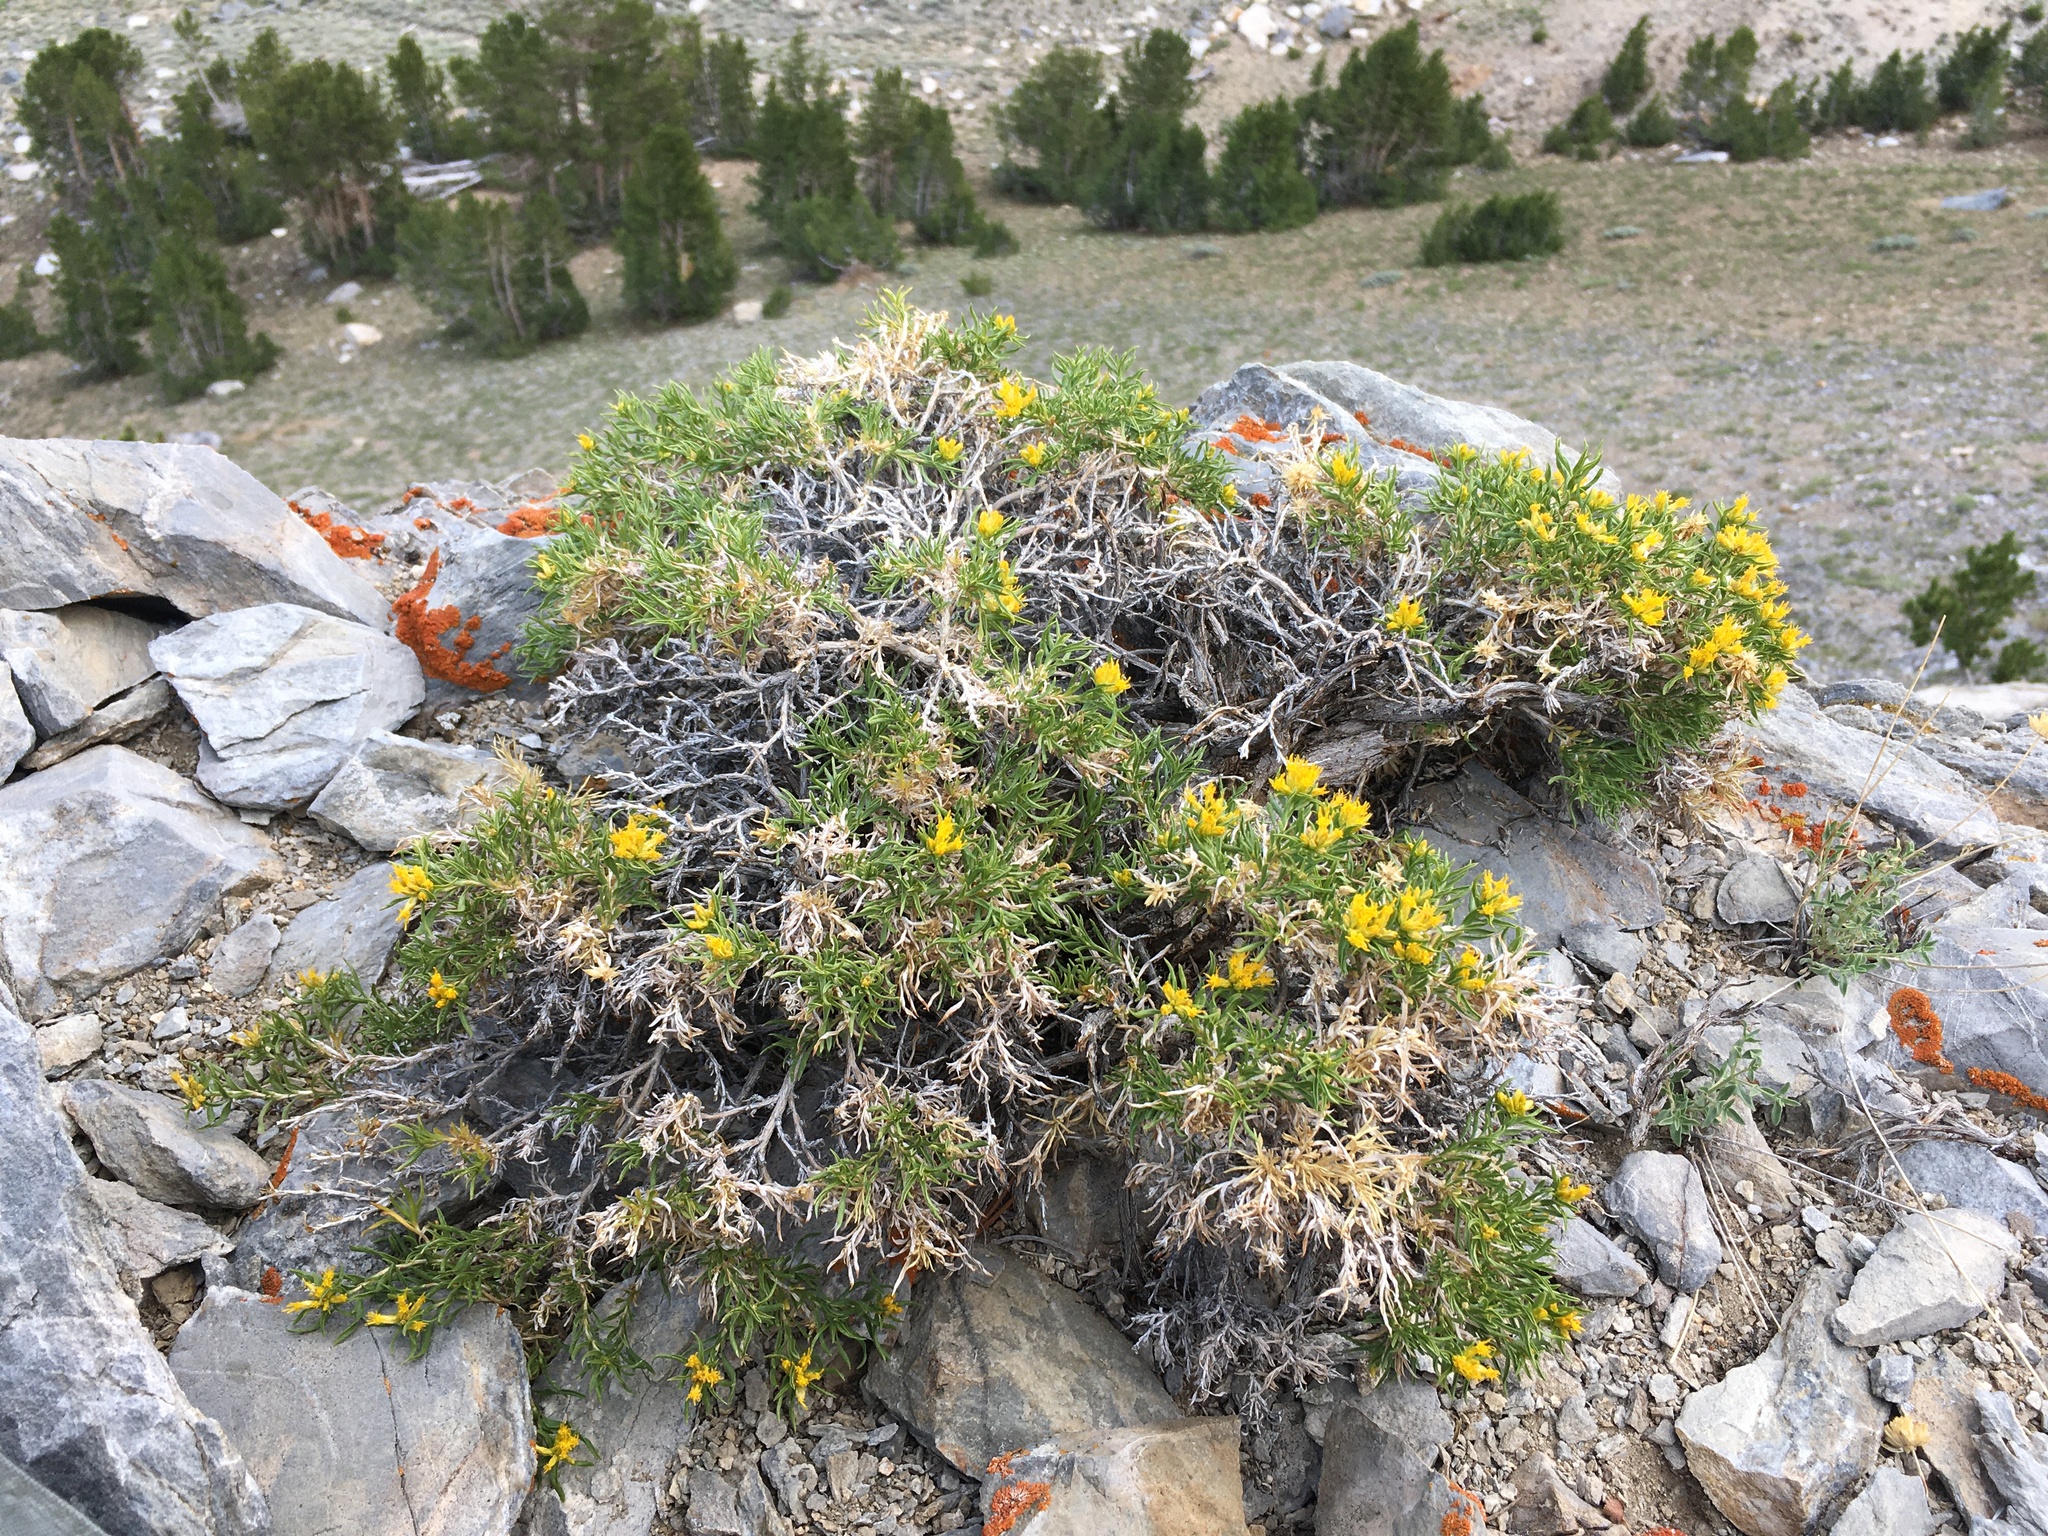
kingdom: Plantae
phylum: Tracheophyta
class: Magnoliopsida
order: Asterales
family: Asteraceae
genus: Chrysothamnus
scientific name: Chrysothamnus viscidiflorus
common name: Yellow rabbitbrush
